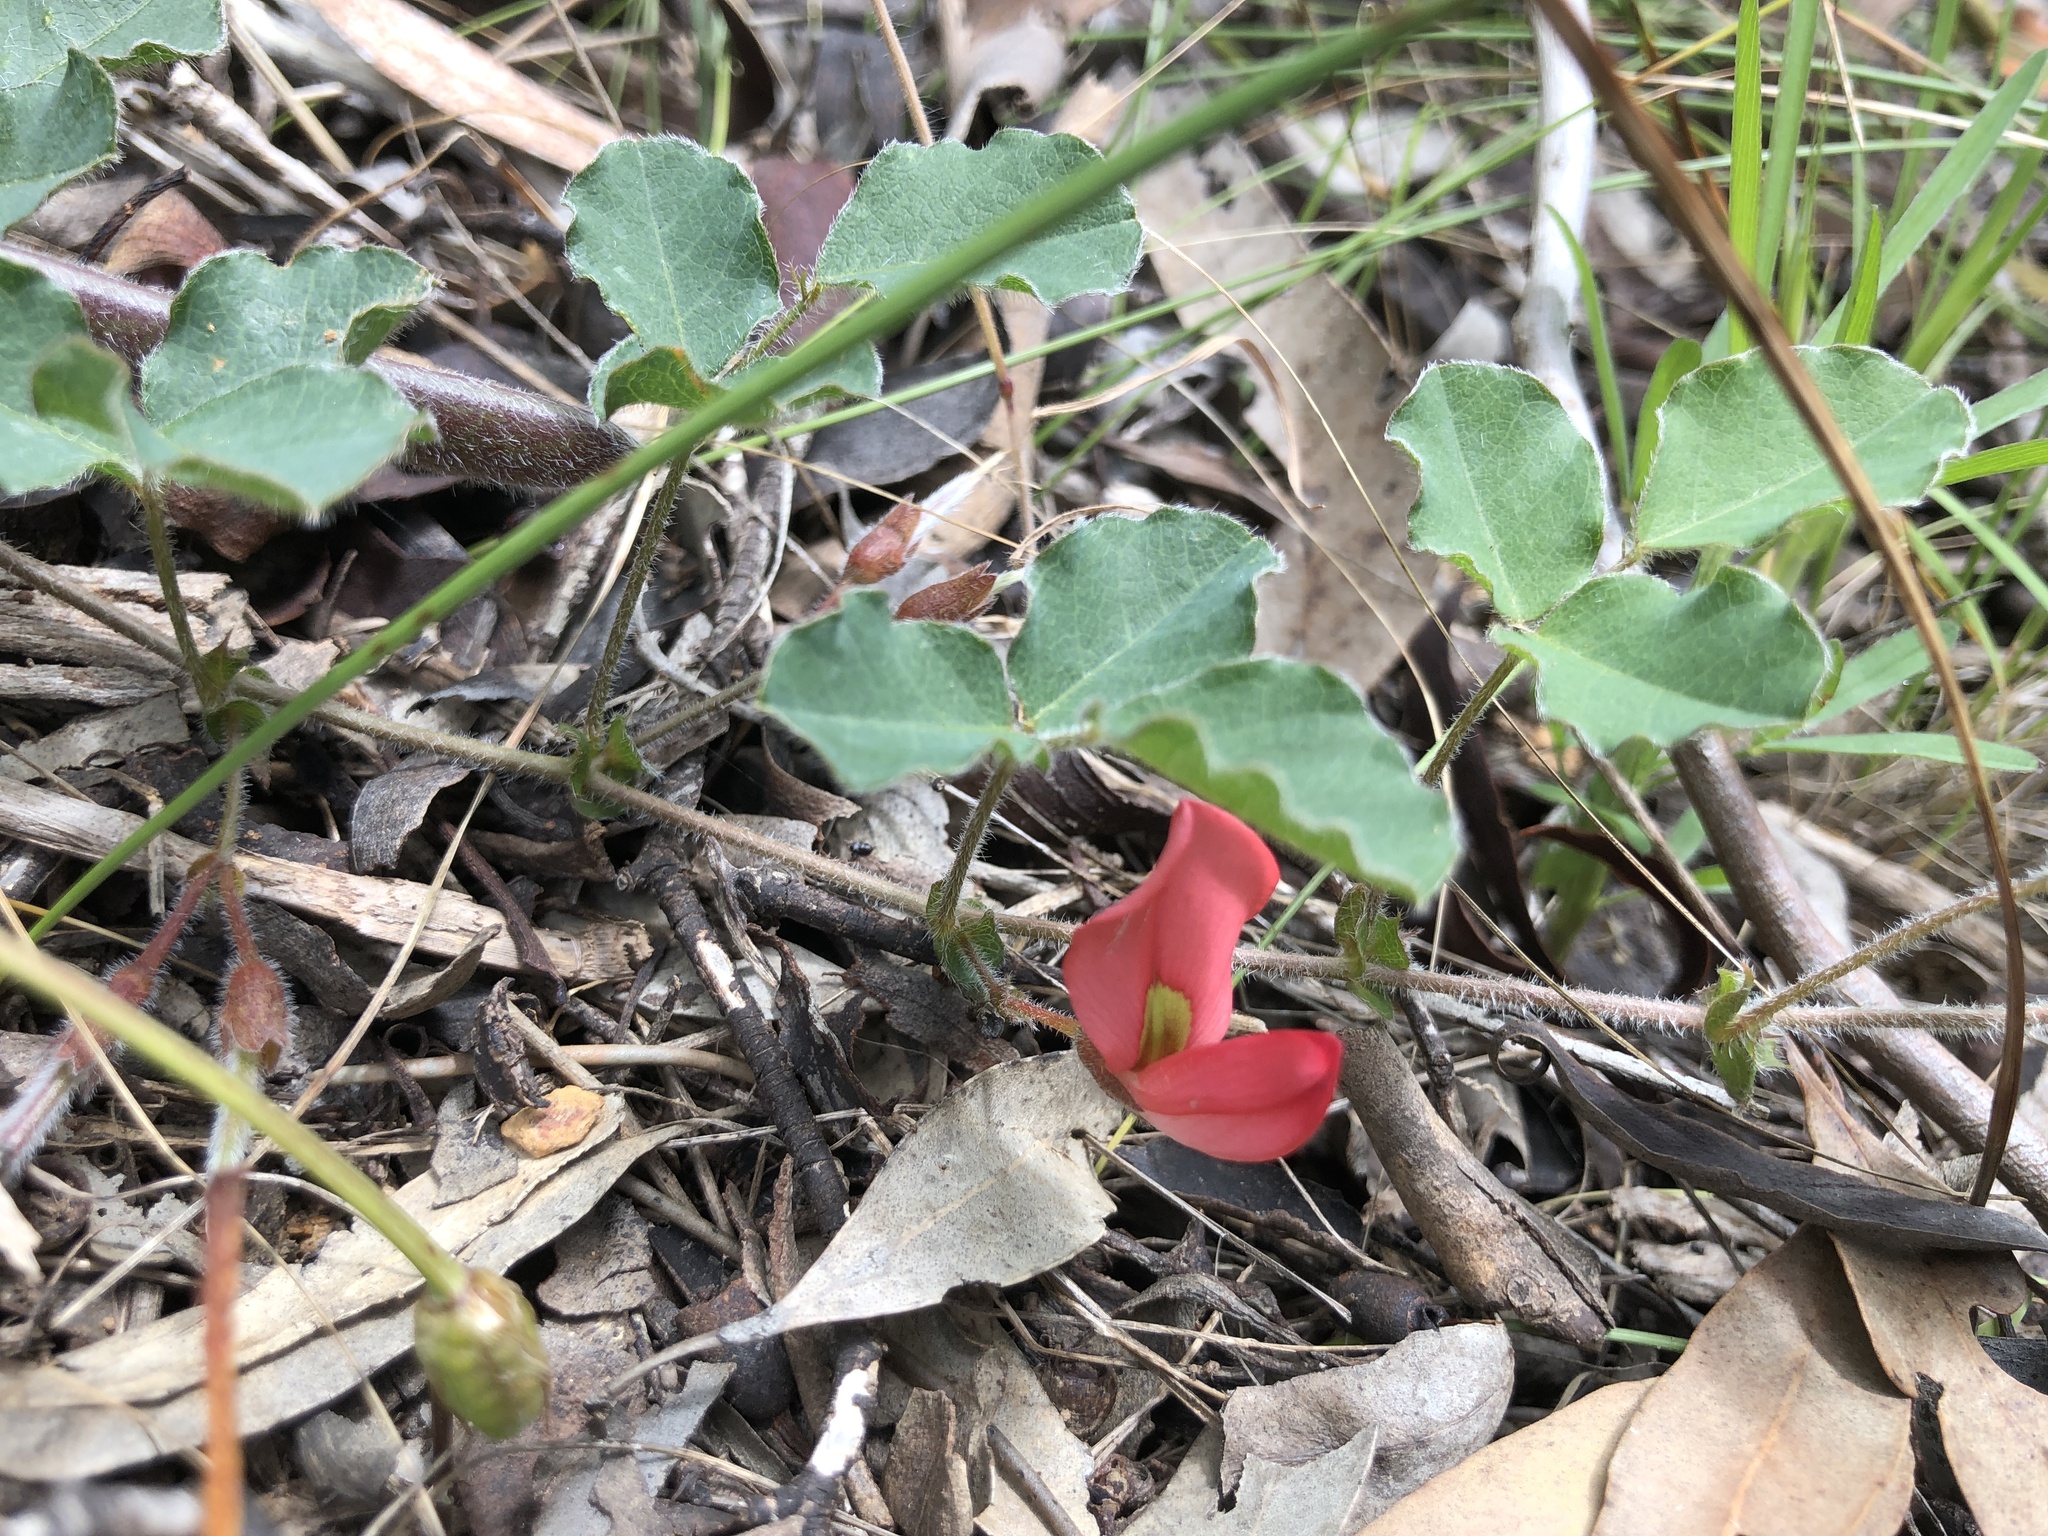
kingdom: Plantae
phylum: Tracheophyta
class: Magnoliopsida
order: Fabales
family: Fabaceae
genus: Kennedia
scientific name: Kennedia prostrata
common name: Running-postman
